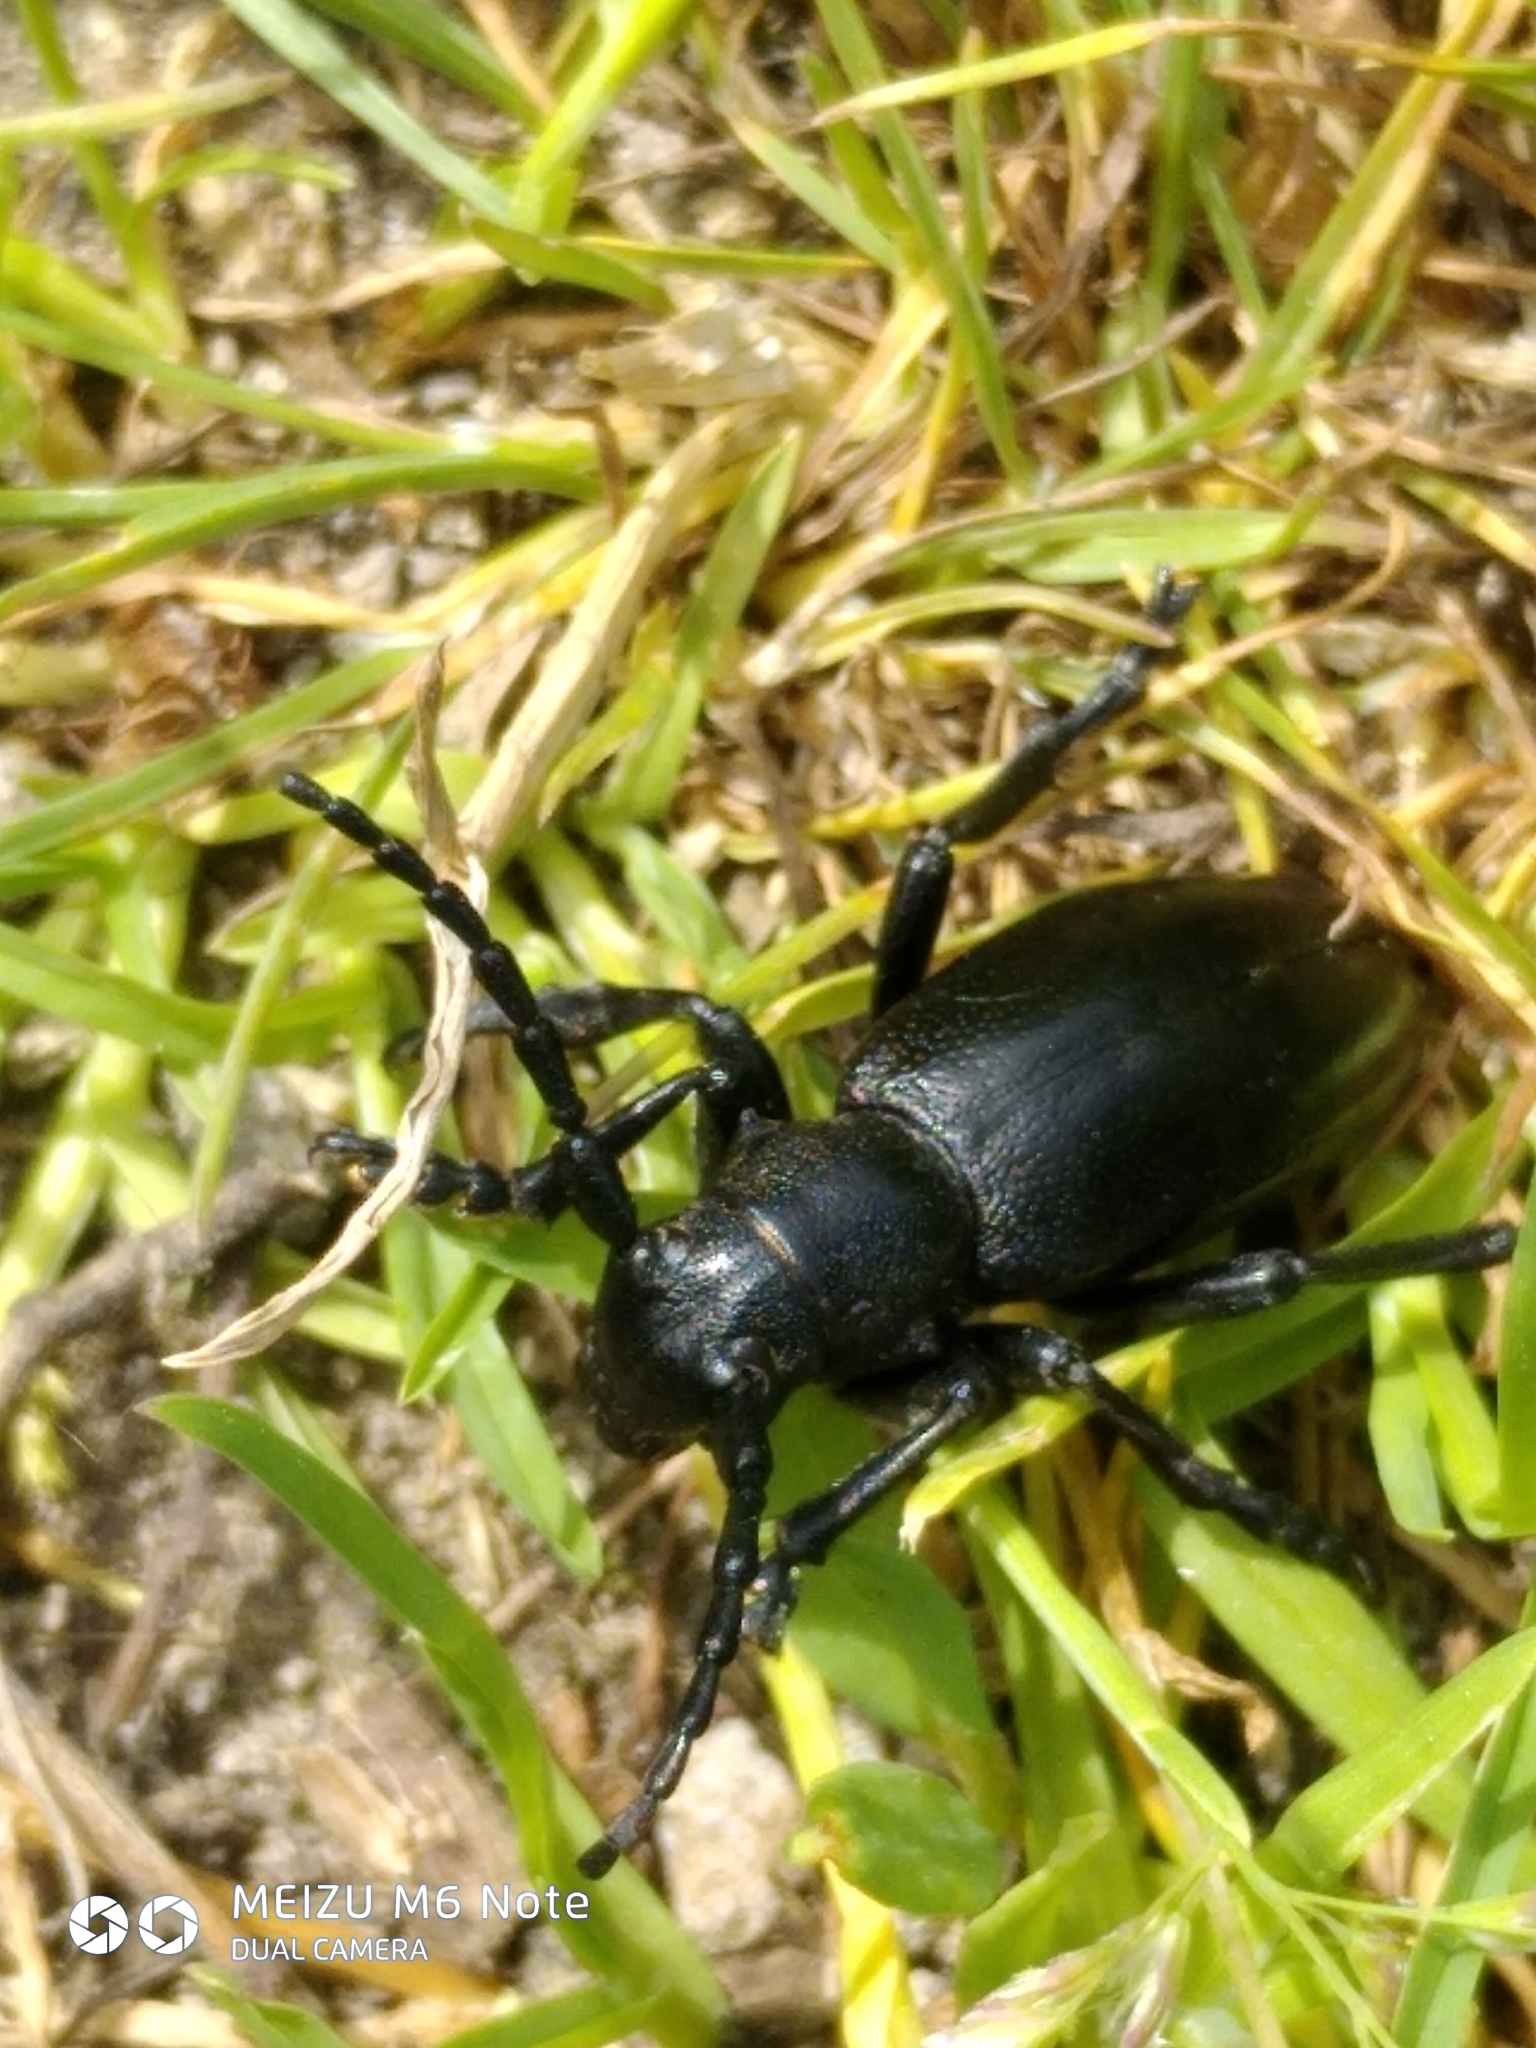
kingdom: Animalia
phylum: Arthropoda
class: Insecta
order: Coleoptera
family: Cerambycidae
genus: Dorcadion
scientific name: Dorcadion aethiops
